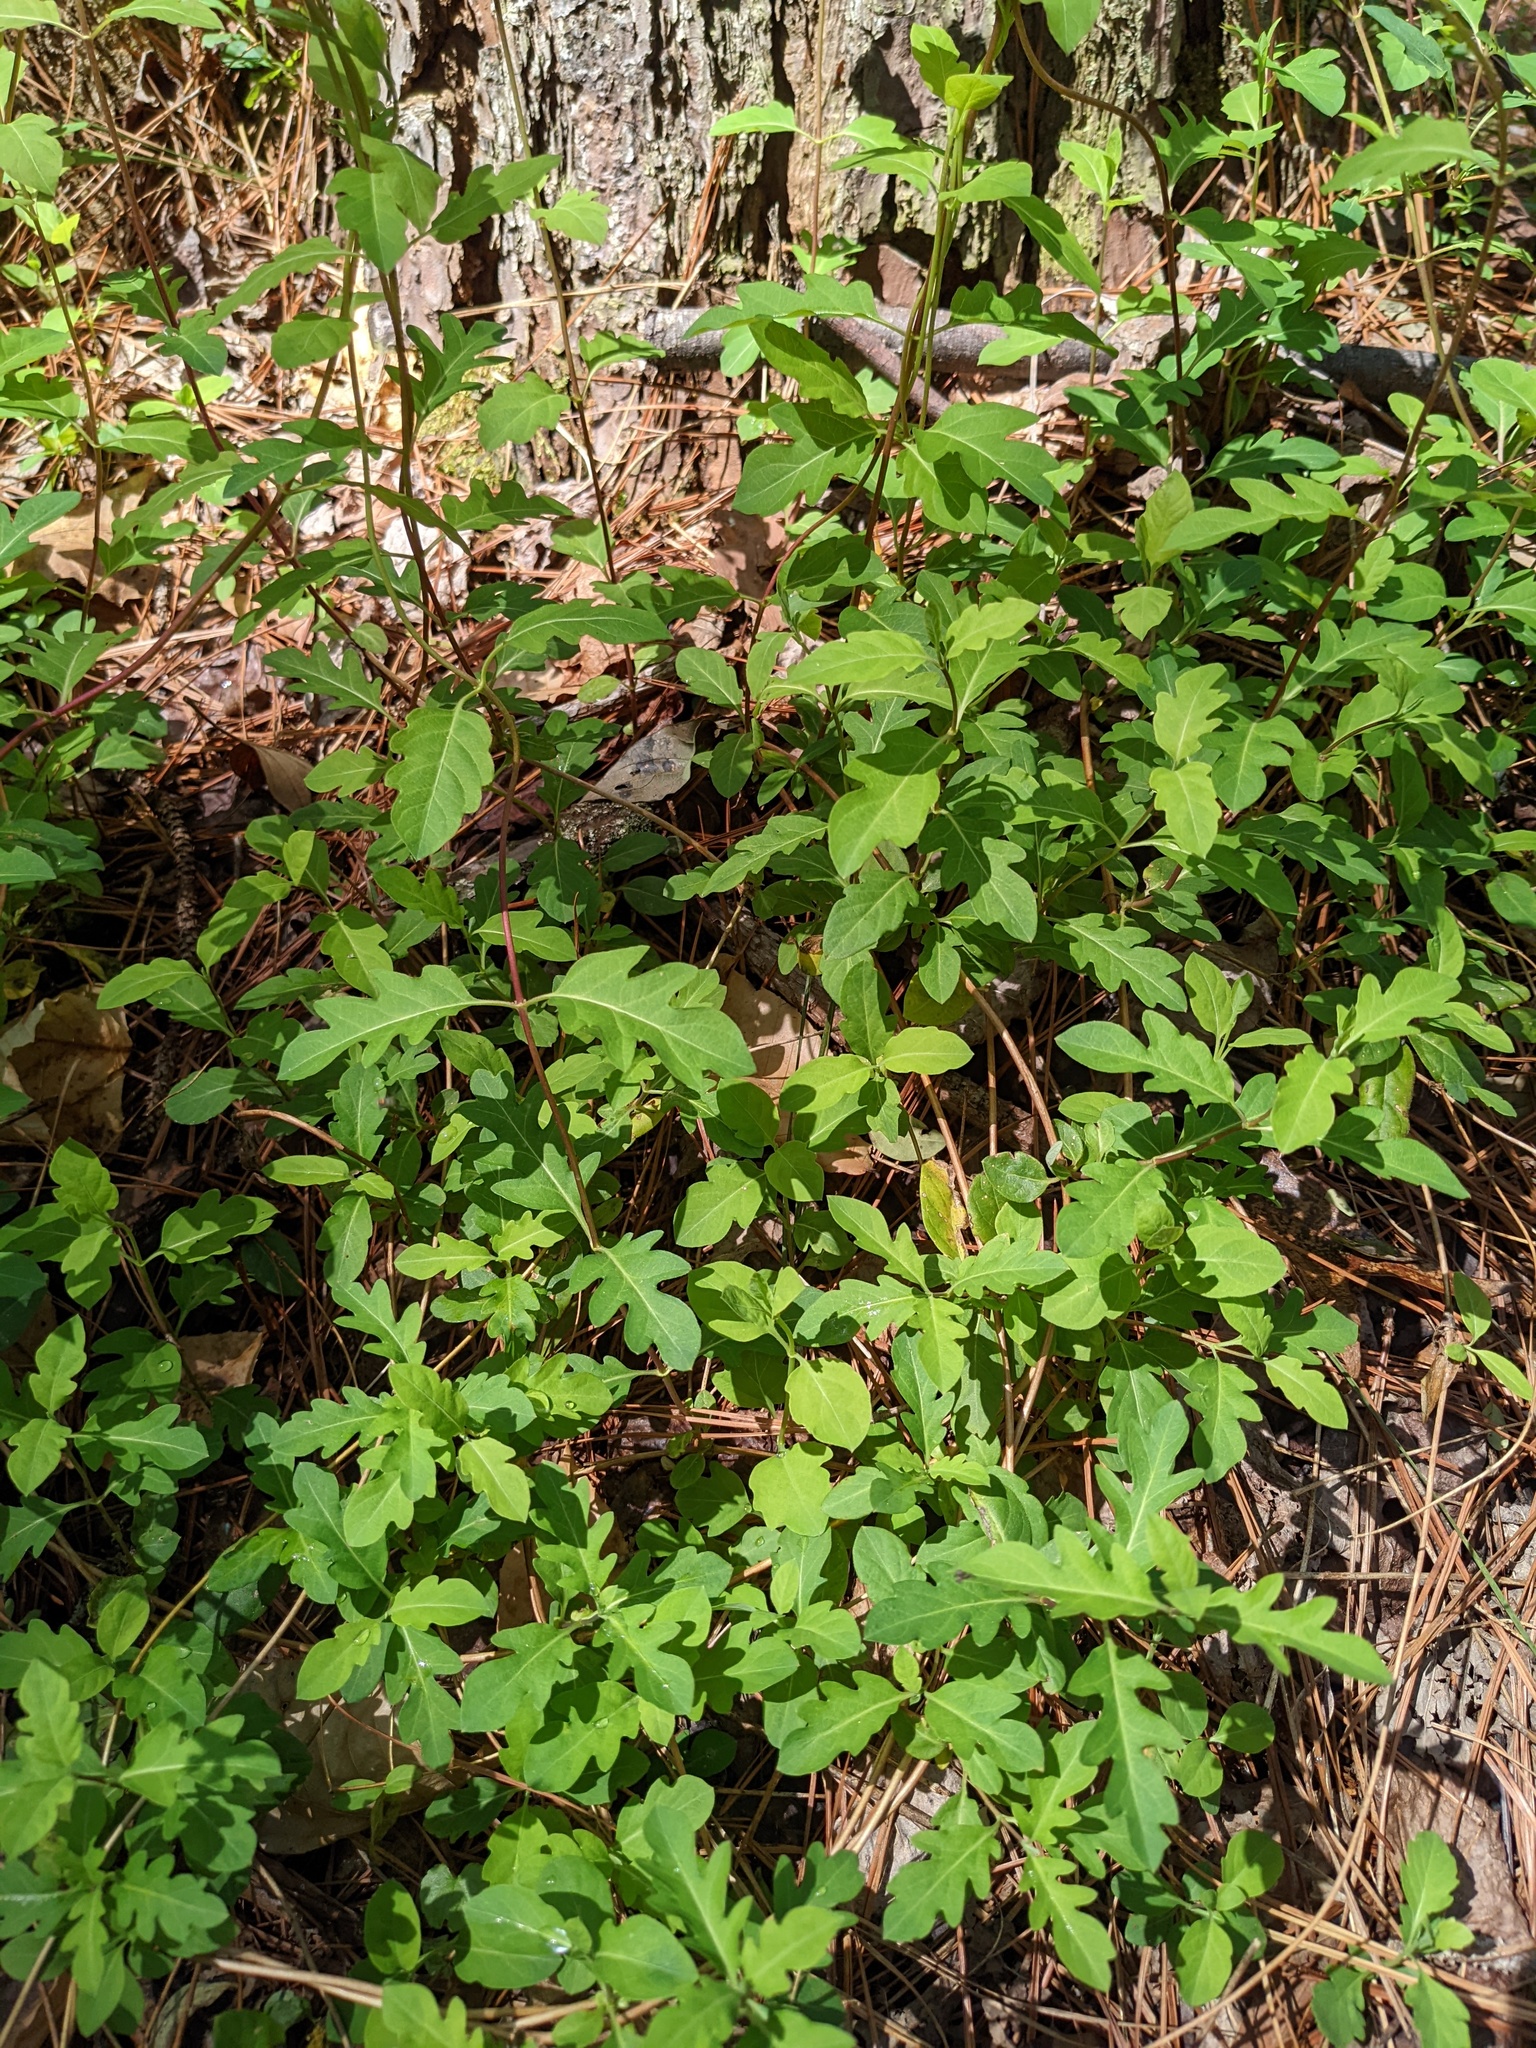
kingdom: Plantae
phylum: Tracheophyta
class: Magnoliopsida
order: Dipsacales
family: Caprifoliaceae
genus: Lonicera
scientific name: Lonicera japonica
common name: Japanese honeysuckle
